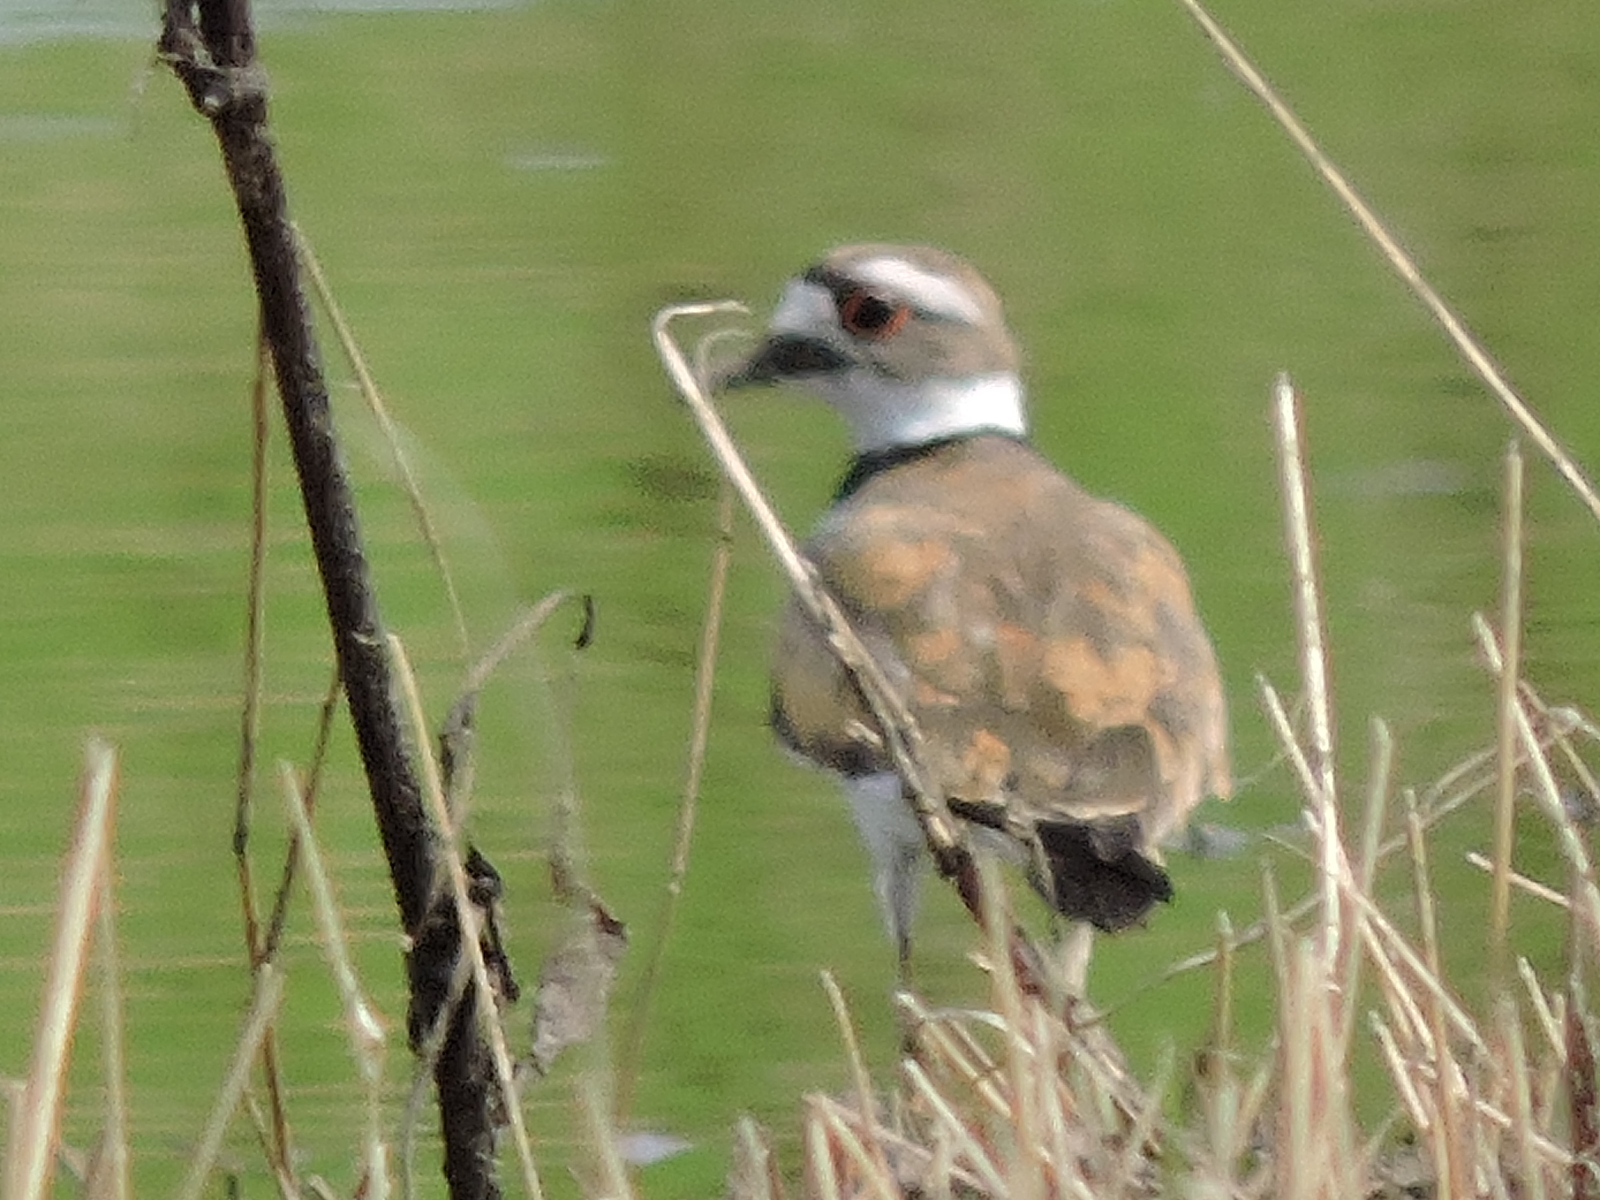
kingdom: Animalia
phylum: Chordata
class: Aves
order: Charadriiformes
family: Charadriidae
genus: Charadrius
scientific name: Charadrius vociferus
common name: Killdeer
